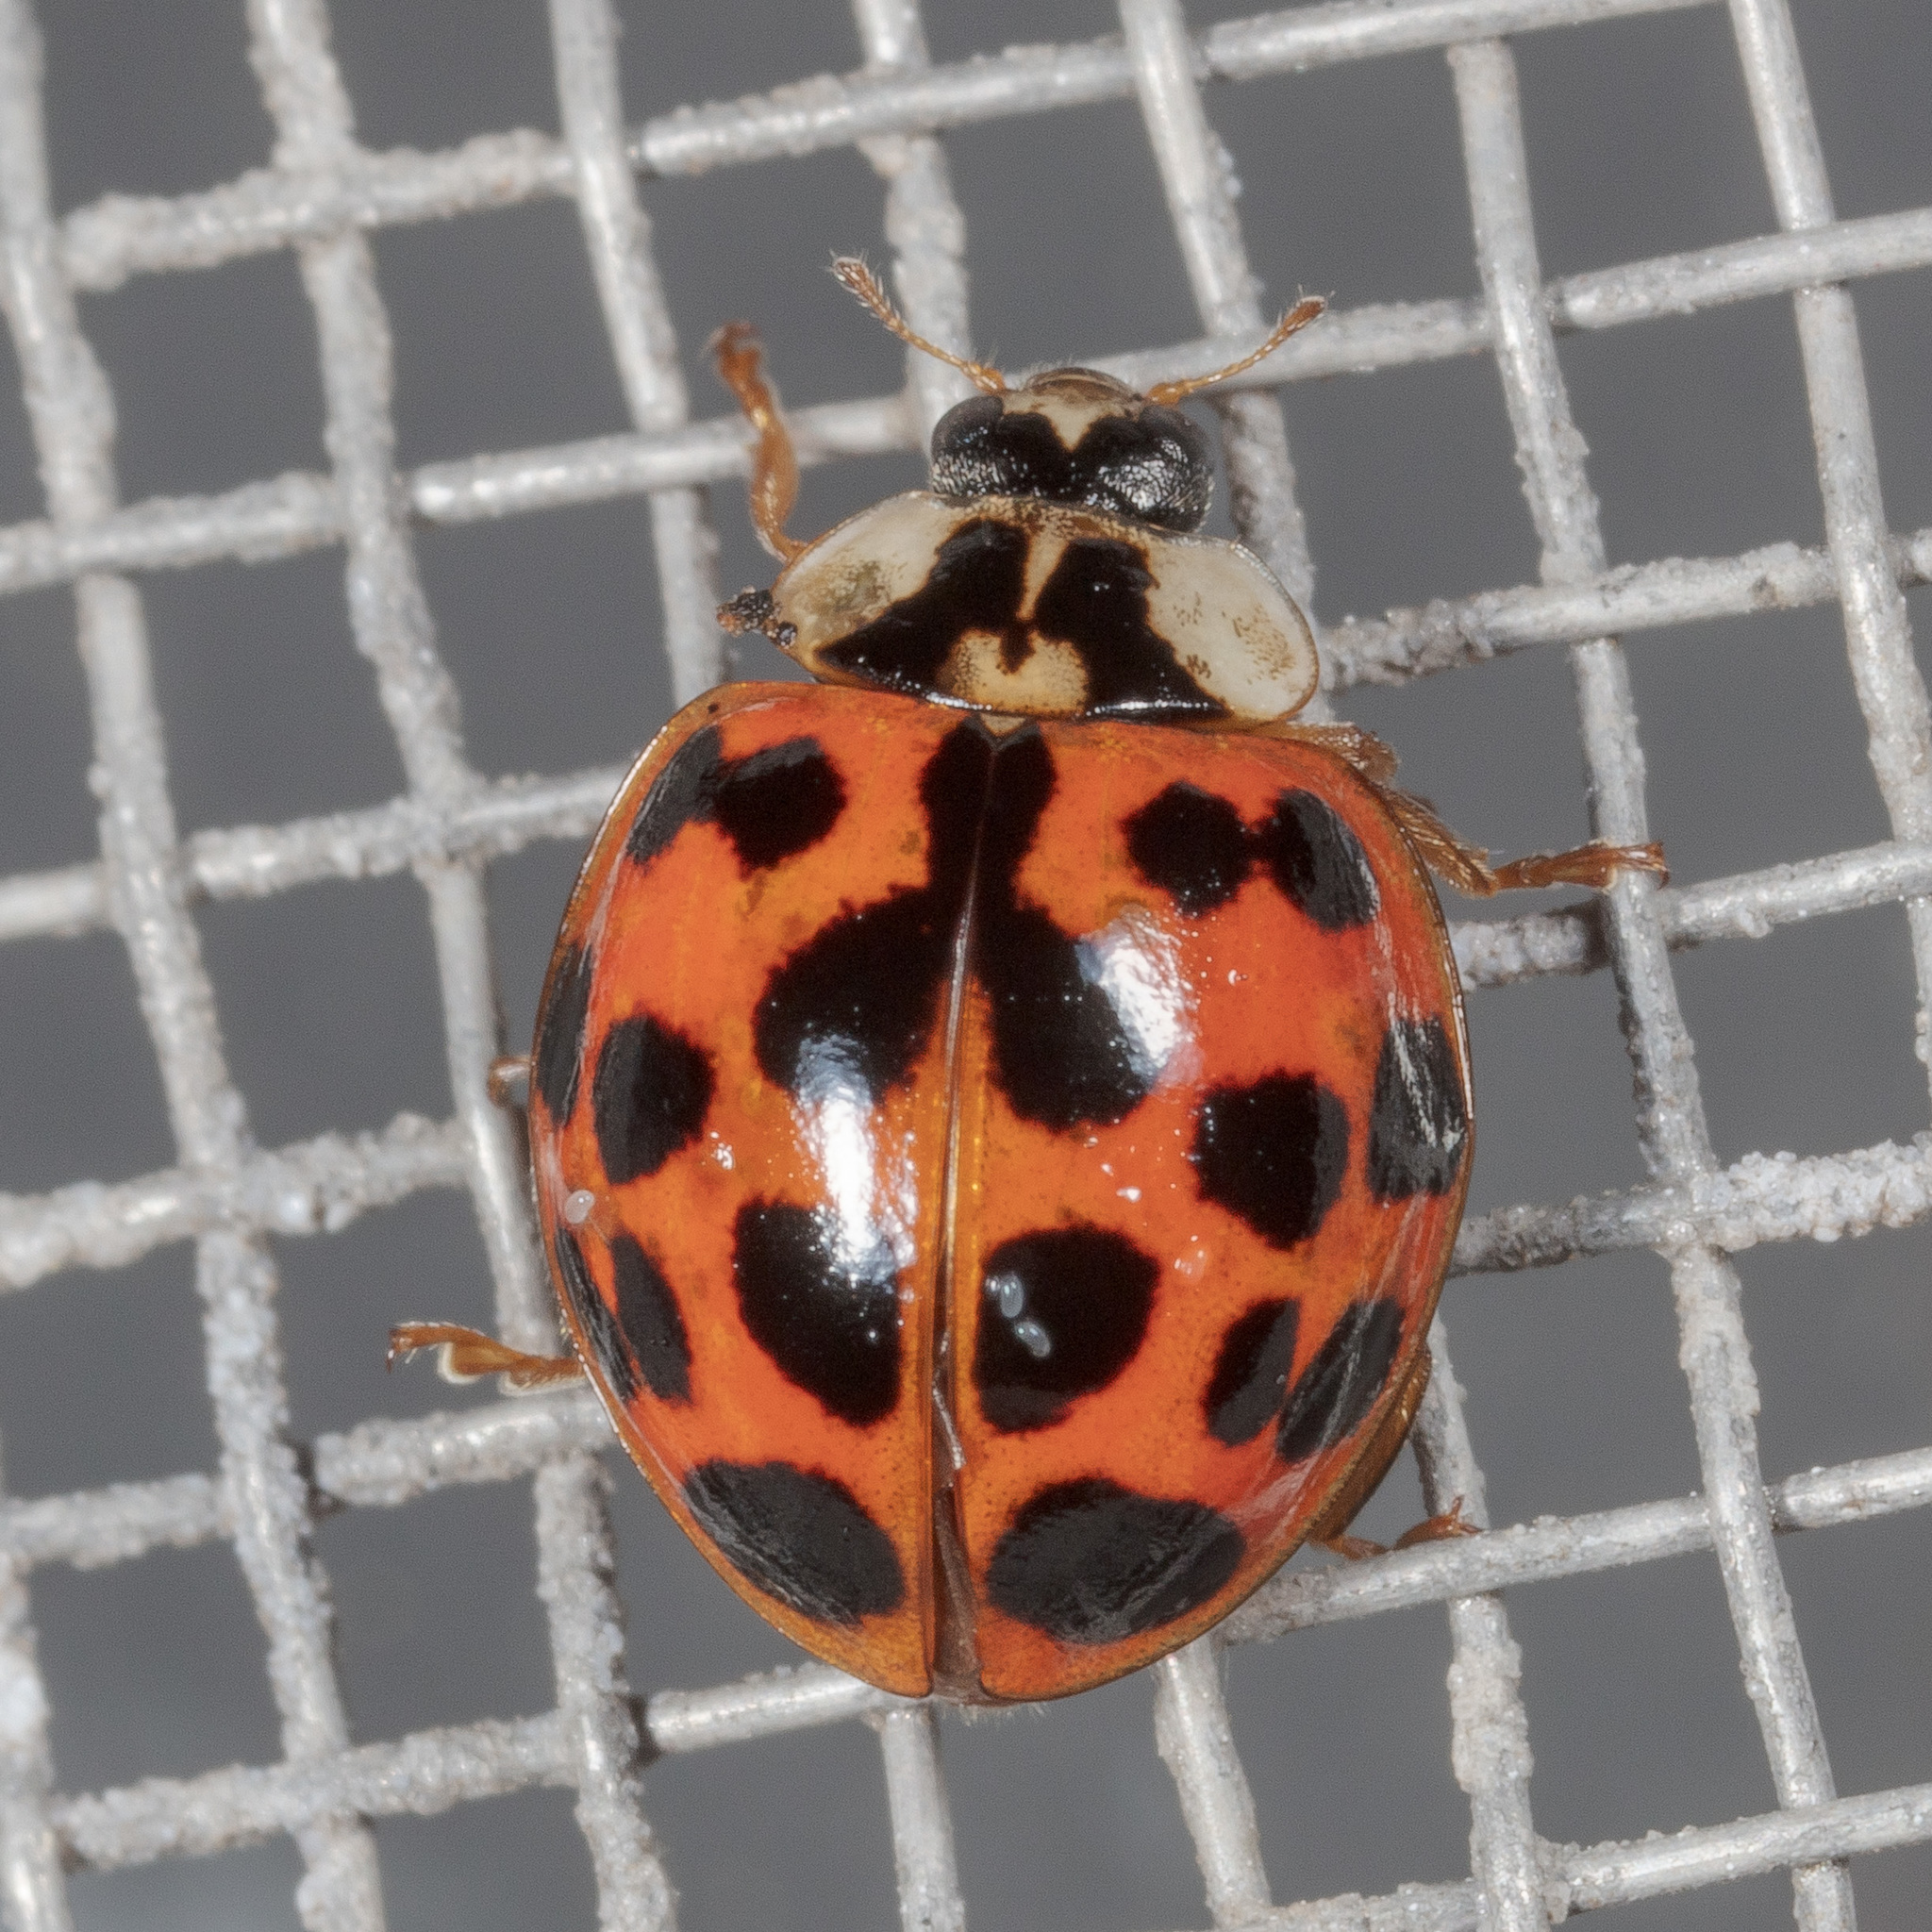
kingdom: Animalia
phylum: Arthropoda
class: Insecta
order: Coleoptera
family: Coccinellidae
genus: Harmonia
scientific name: Harmonia axyridis
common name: Harlequin ladybird
